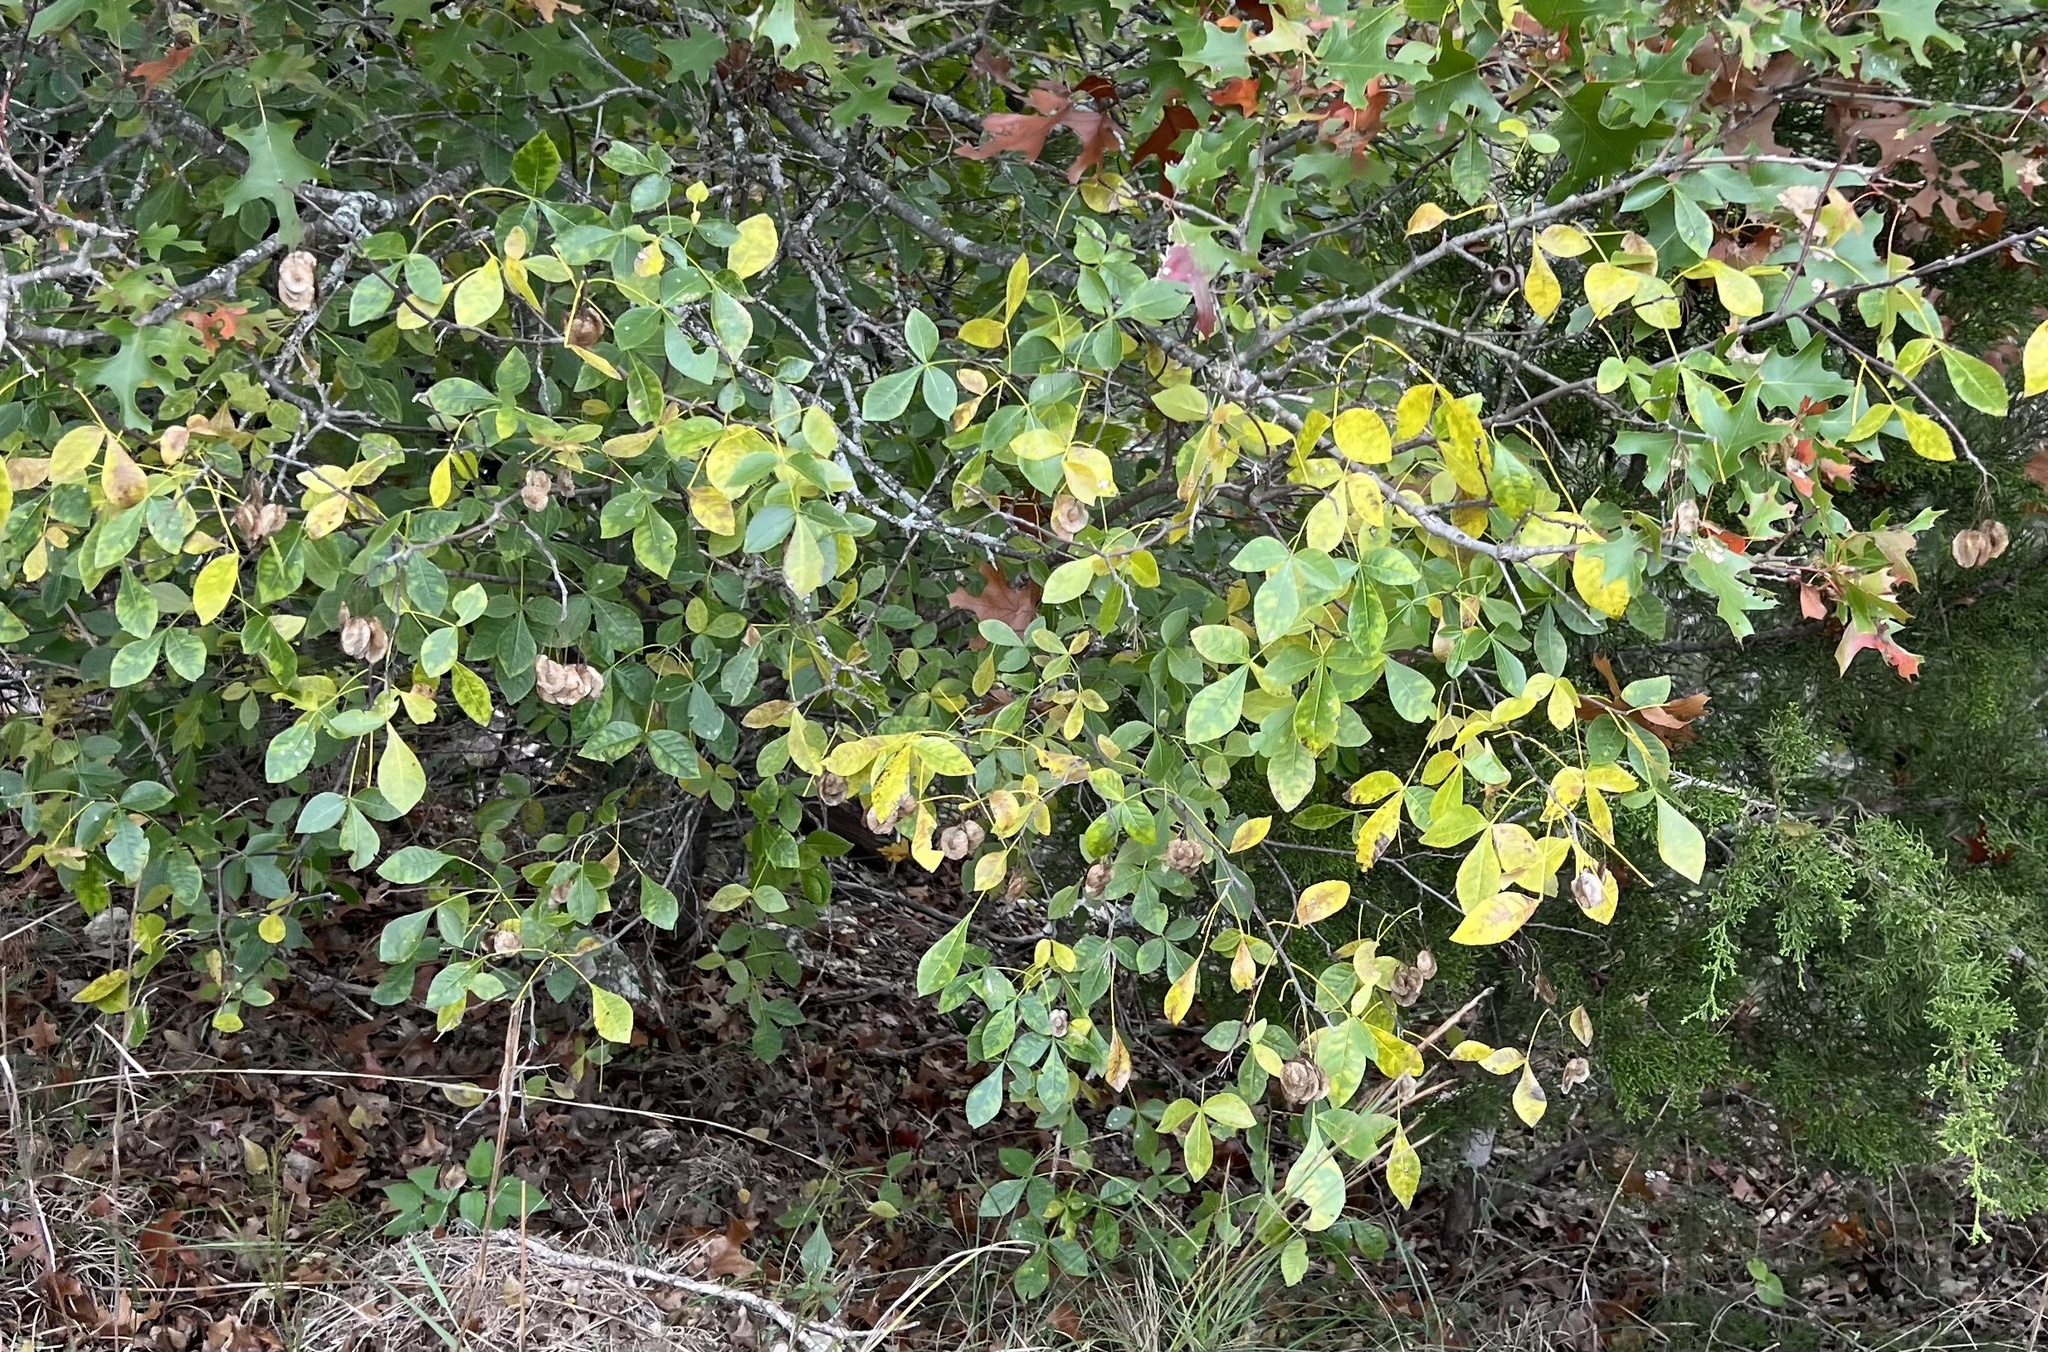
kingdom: Plantae
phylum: Tracheophyta
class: Magnoliopsida
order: Sapindales
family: Rutaceae
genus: Ptelea
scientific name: Ptelea trifoliata
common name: Common hop-tree
